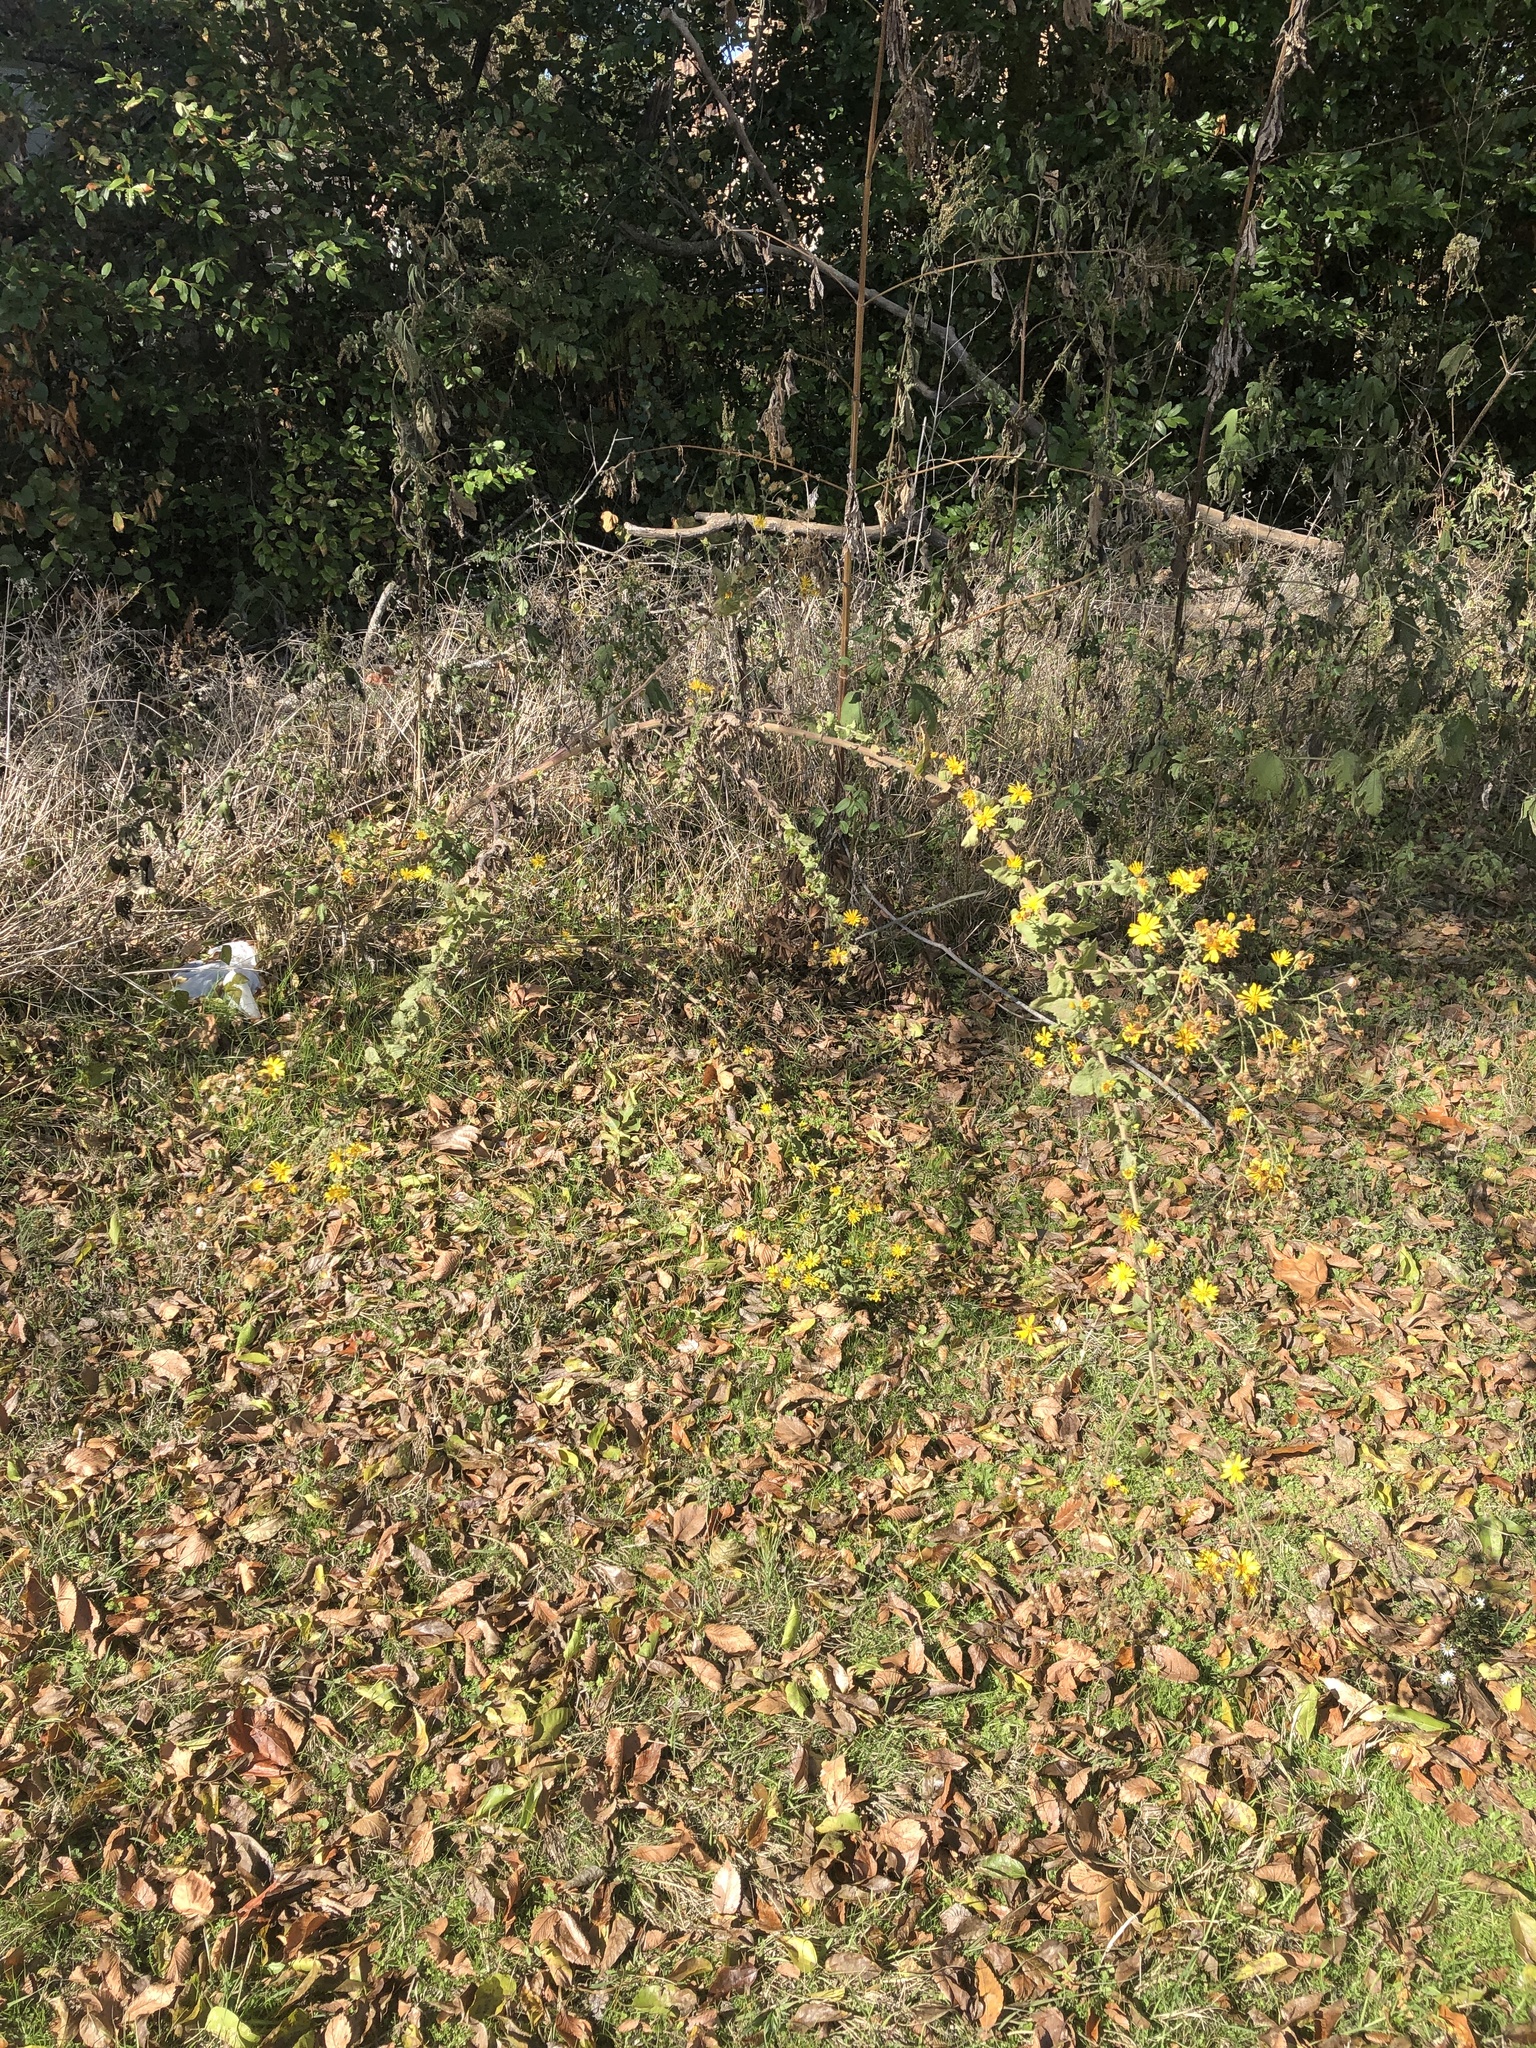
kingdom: Plantae
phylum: Tracheophyta
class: Magnoliopsida
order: Asterales
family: Asteraceae
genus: Heterotheca
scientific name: Heterotheca subaxillaris
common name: Camphorweed
